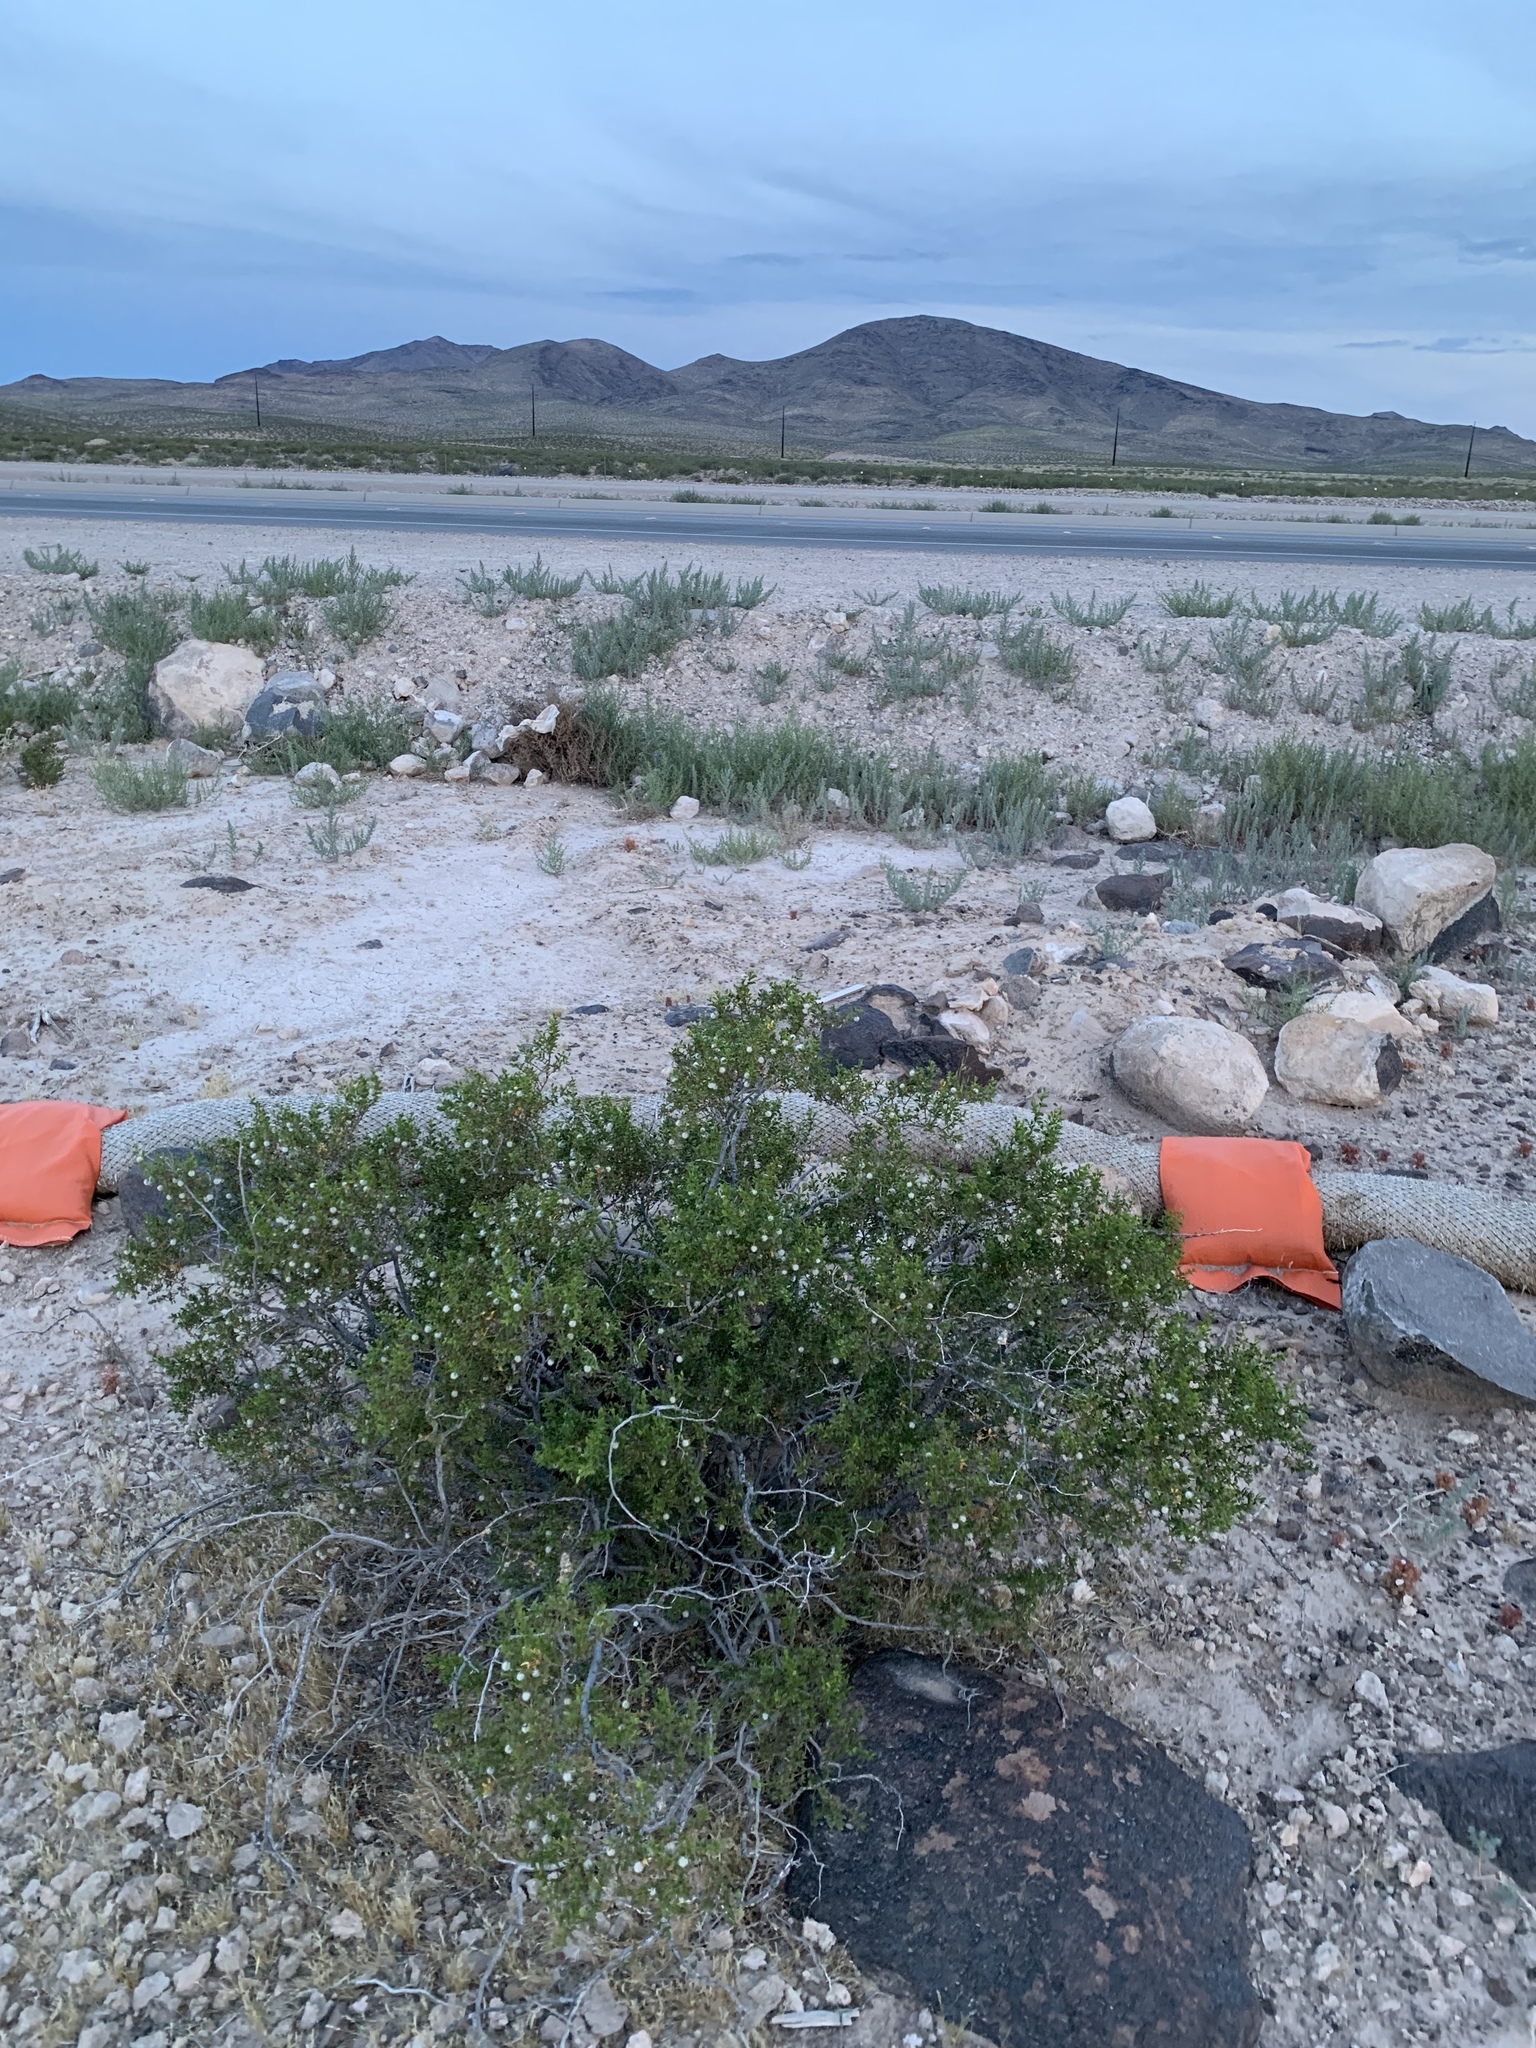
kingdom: Plantae
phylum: Tracheophyta
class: Magnoliopsida
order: Zygophyllales
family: Zygophyllaceae
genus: Larrea
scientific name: Larrea tridentata
